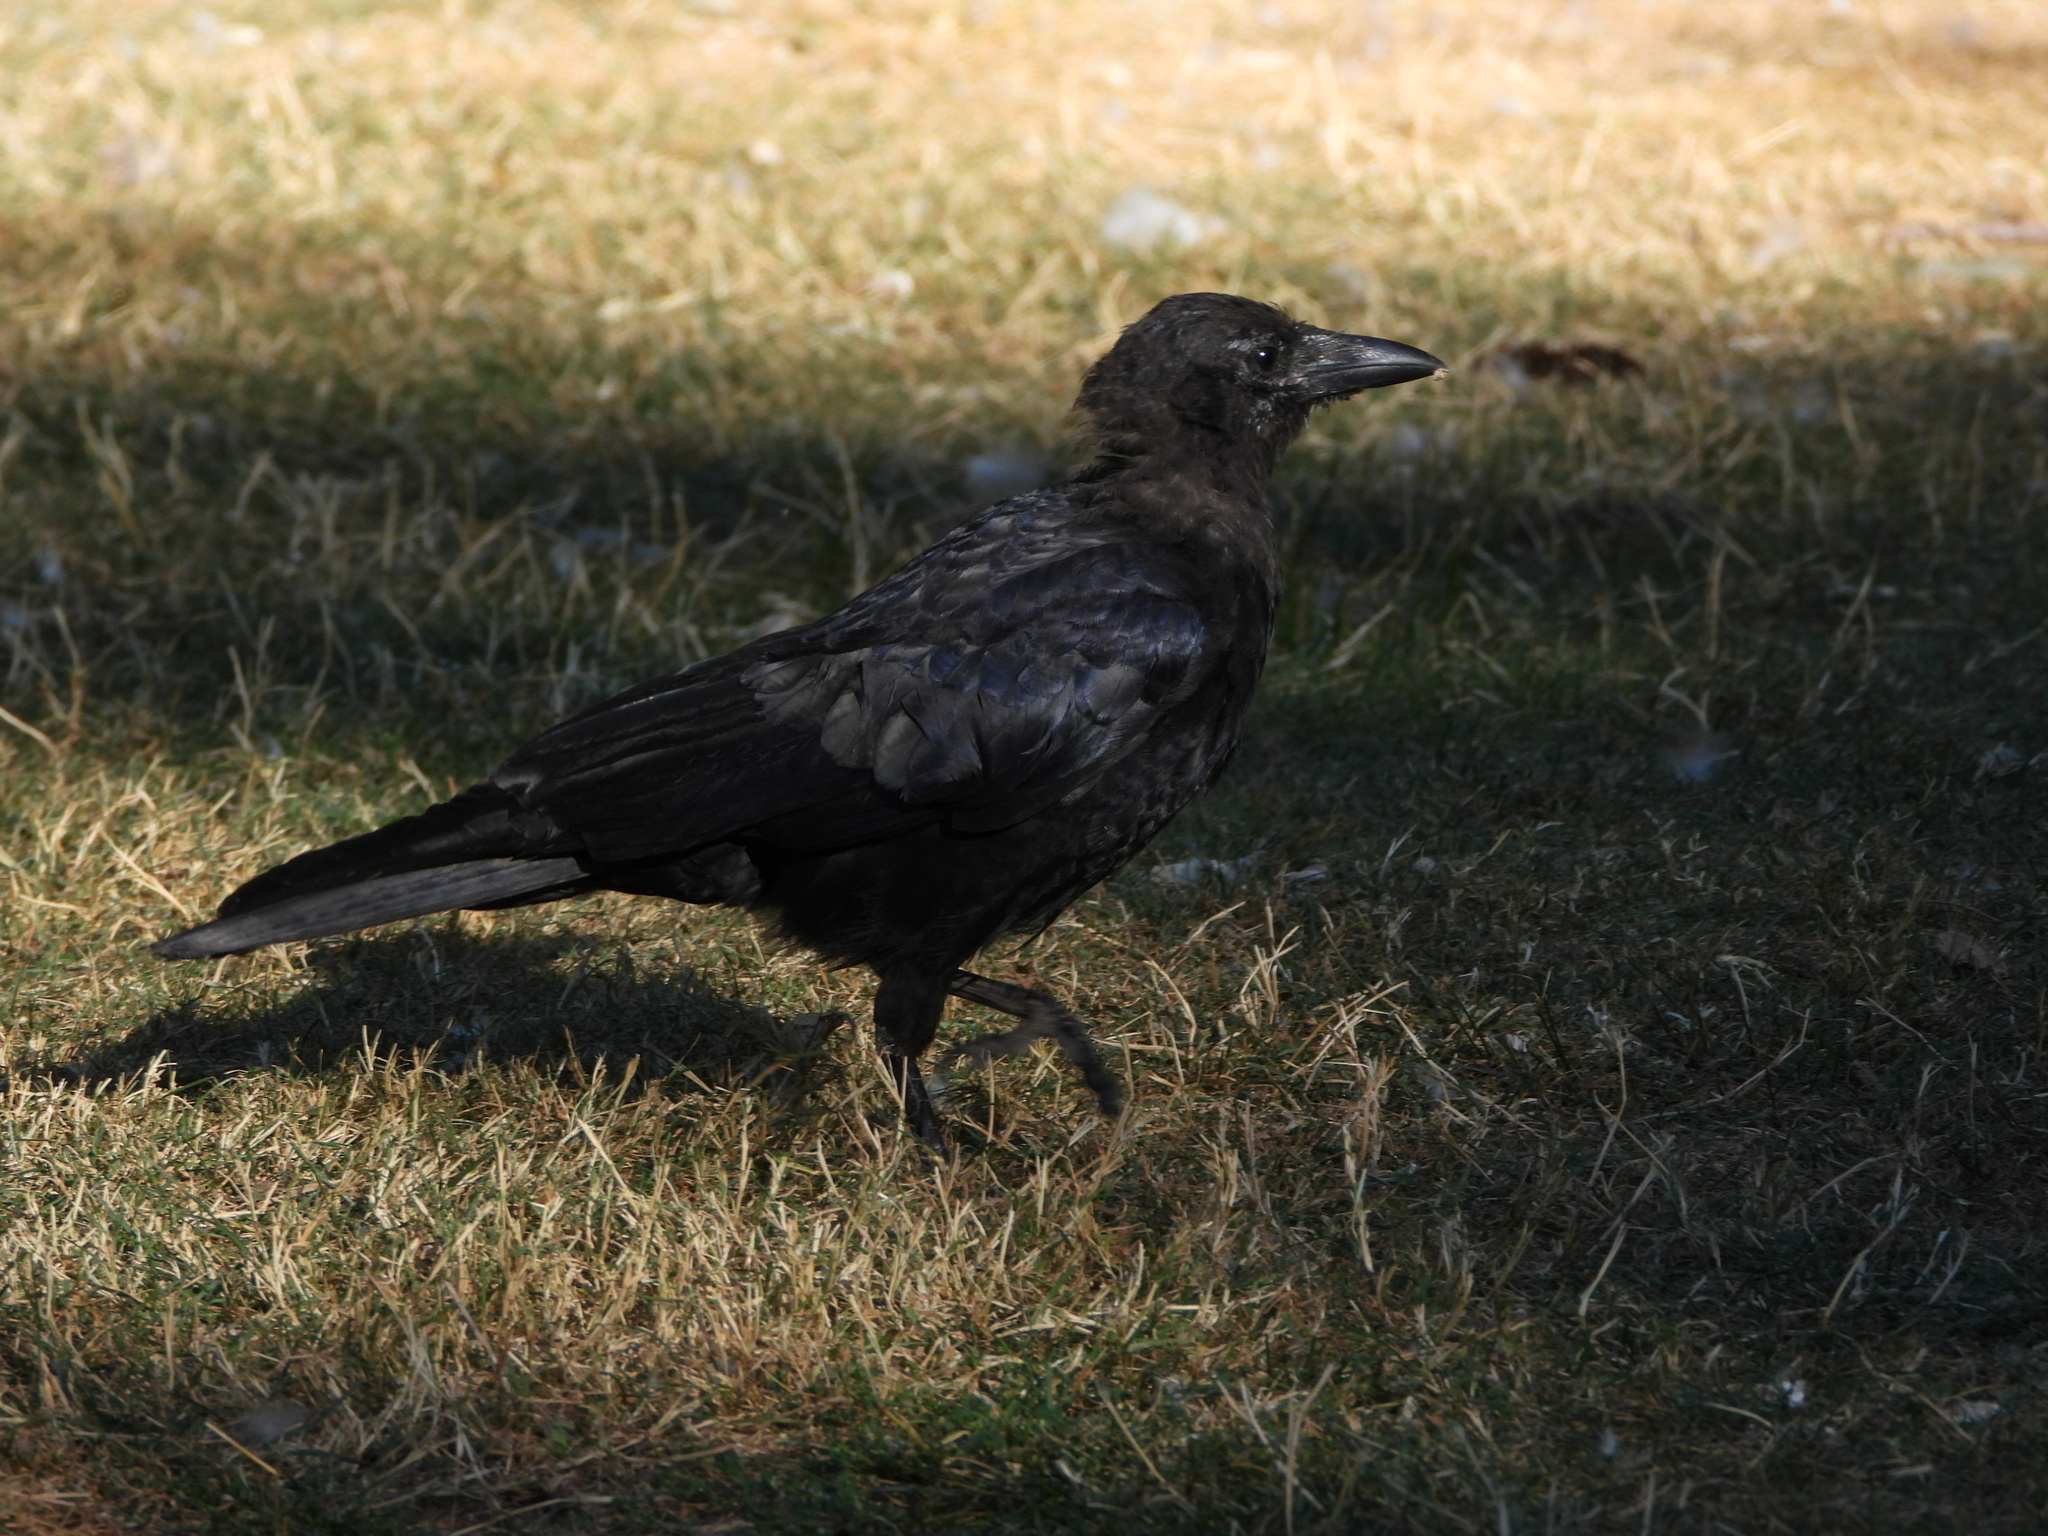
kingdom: Animalia
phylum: Chordata
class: Aves
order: Passeriformes
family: Corvidae
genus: Corvus
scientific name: Corvus brachyrhynchos
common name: American crow
